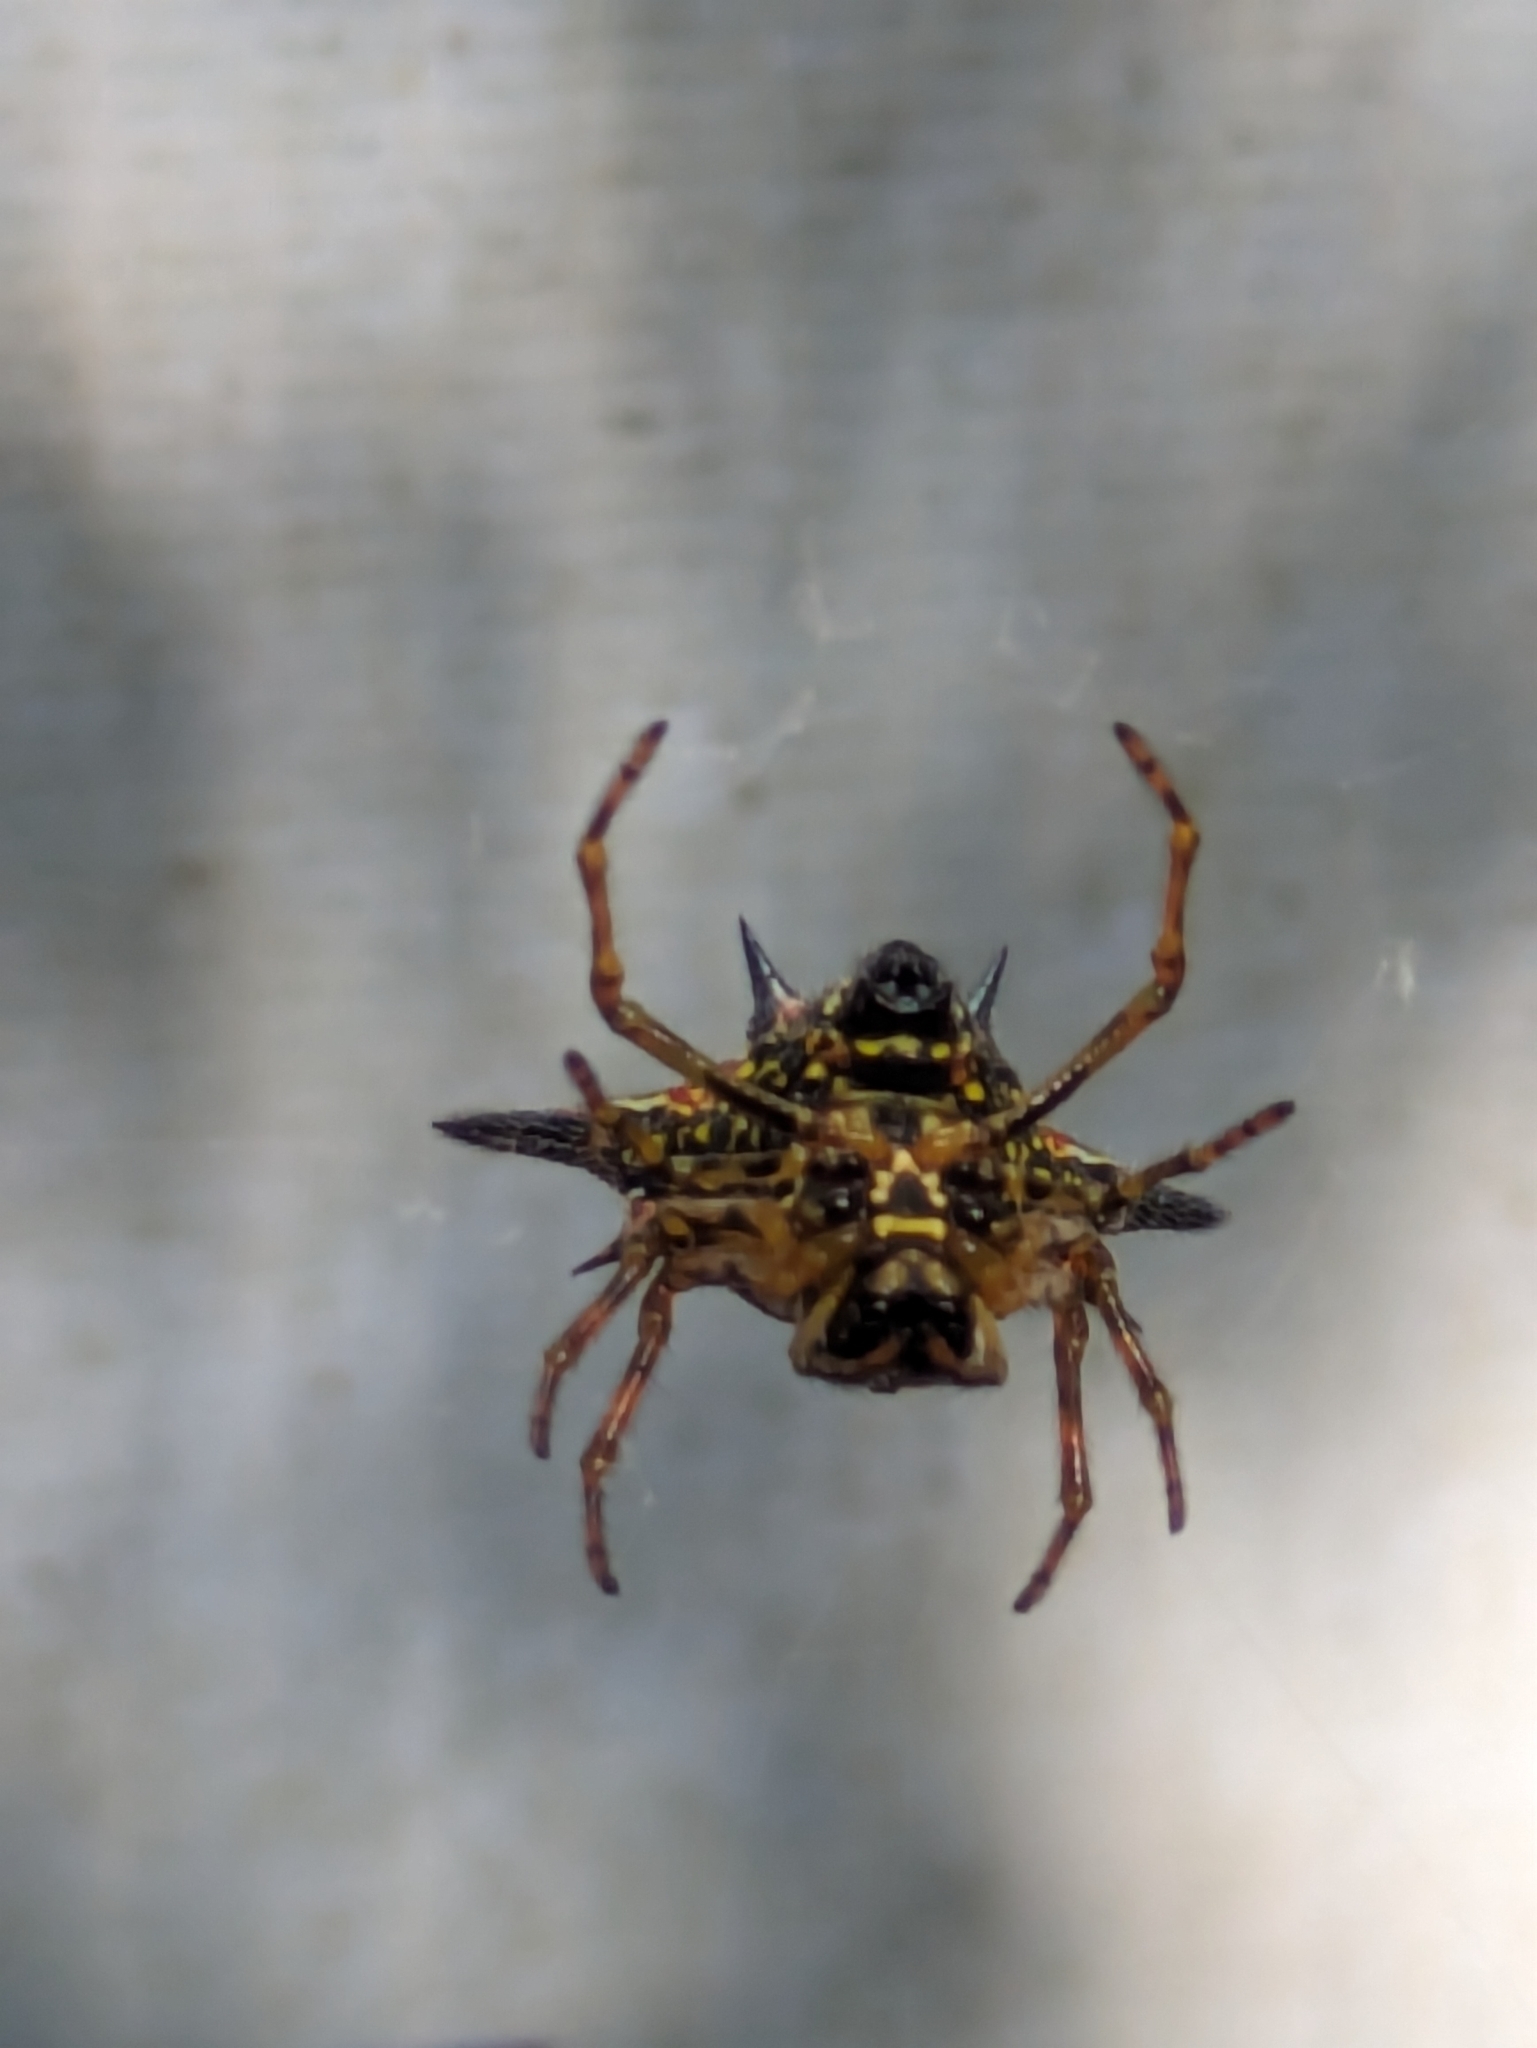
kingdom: Animalia
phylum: Arthropoda
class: Arachnida
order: Araneae
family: Araneidae
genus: Macracantha
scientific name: Macracantha hasselti
